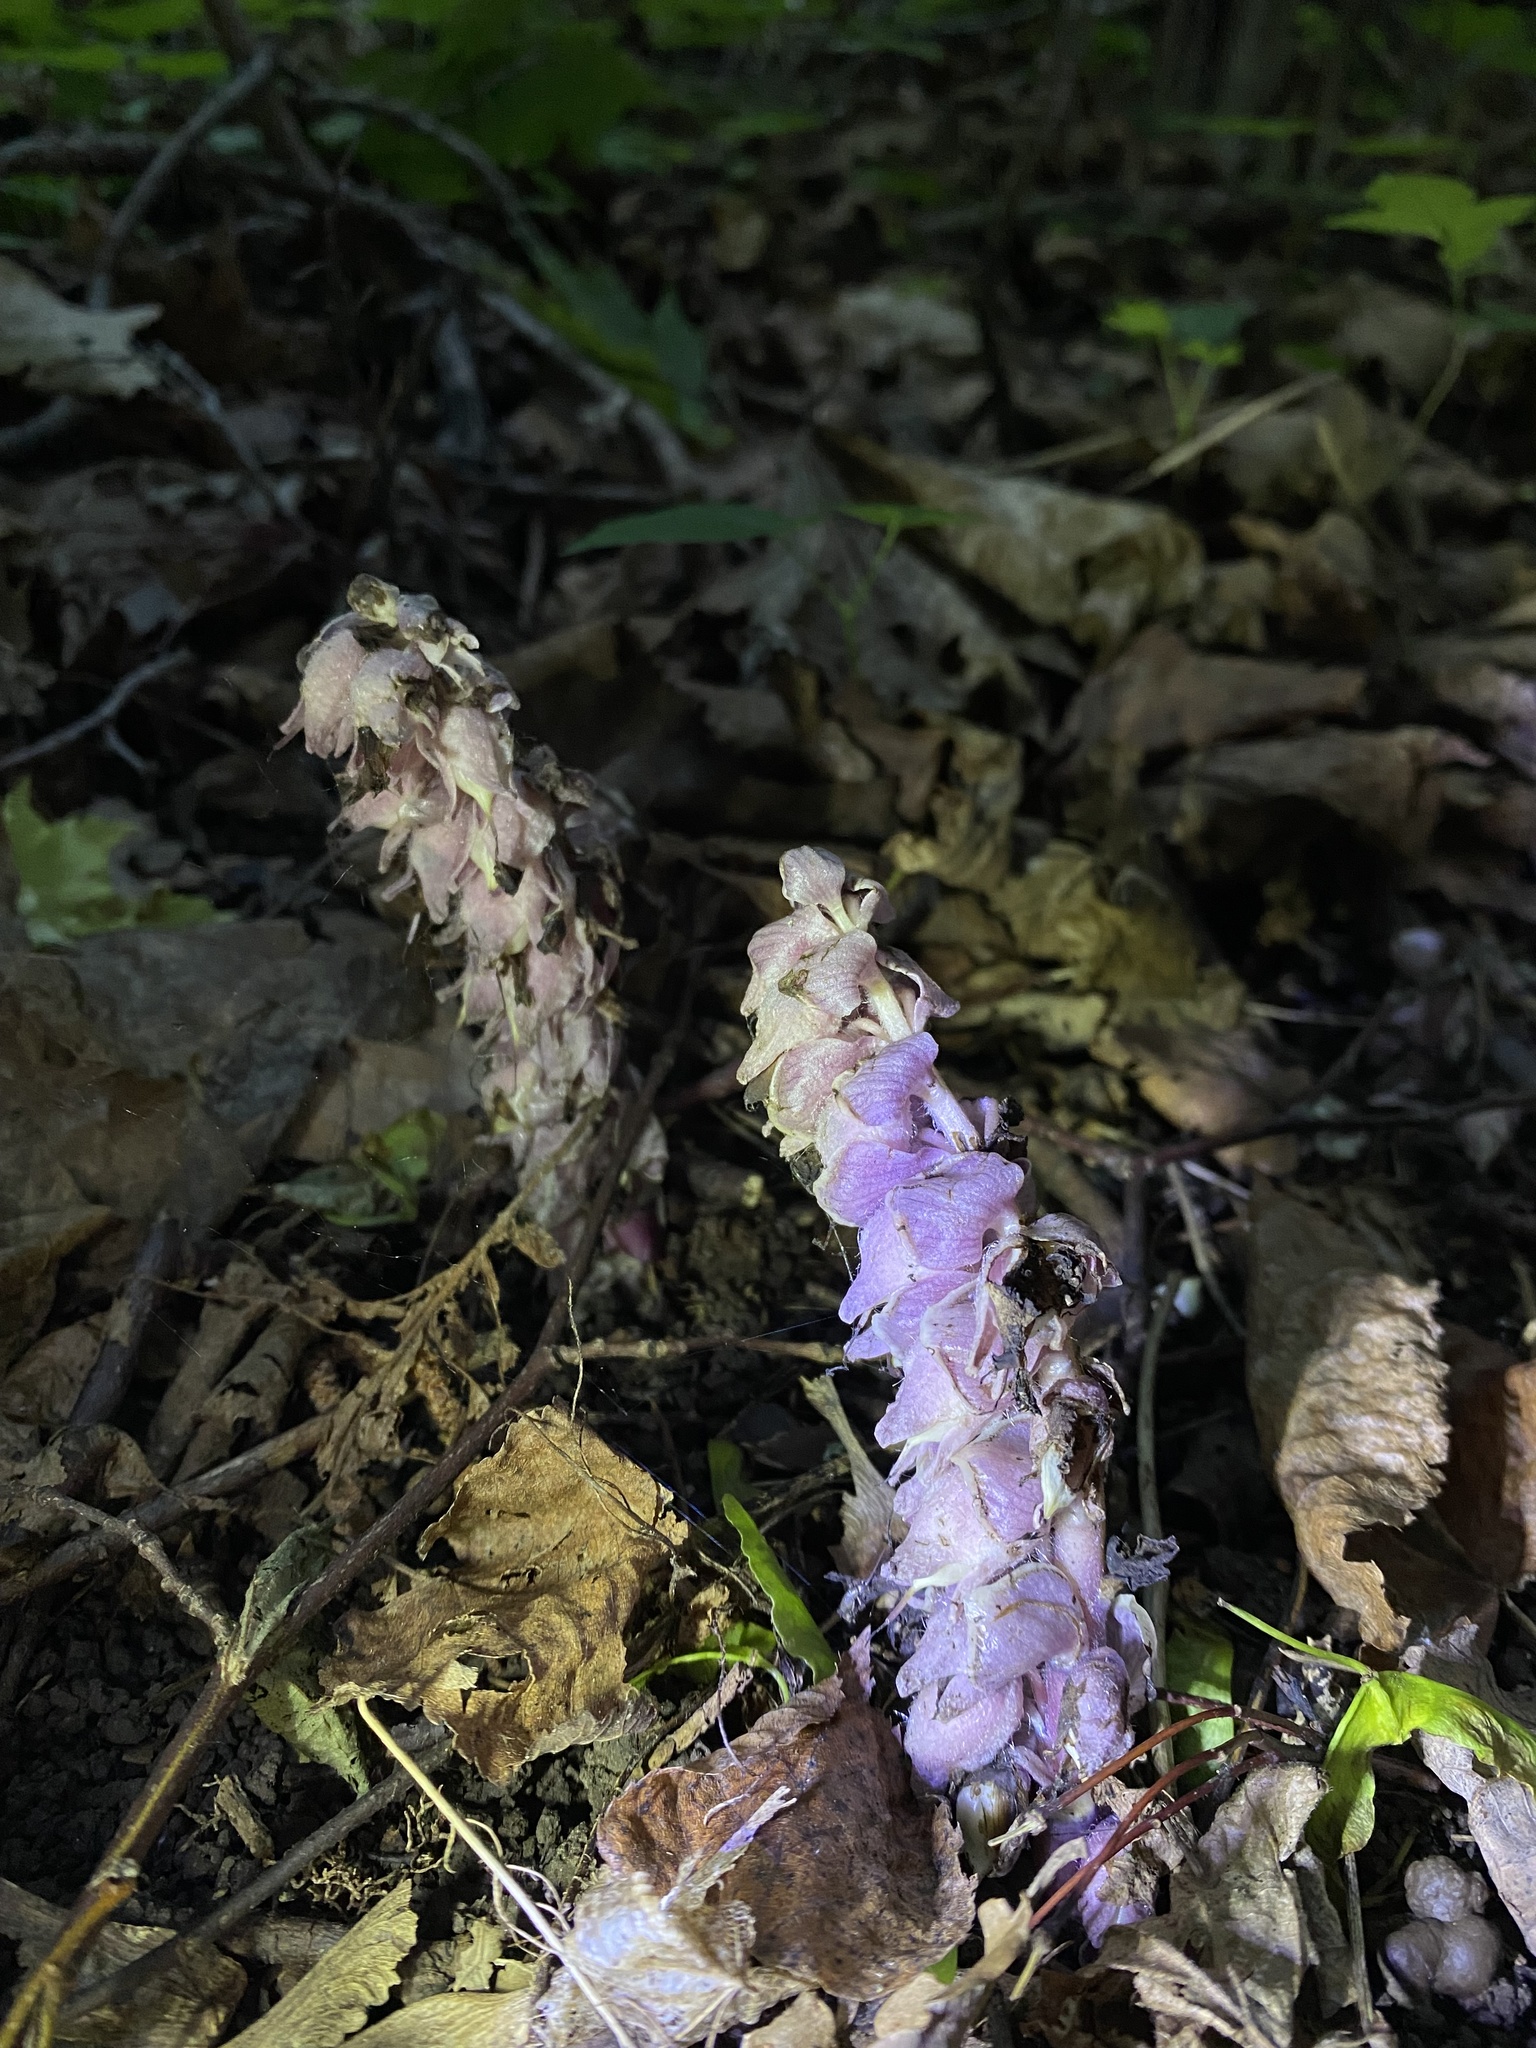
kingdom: Plantae
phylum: Tracheophyta
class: Magnoliopsida
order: Lamiales
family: Orobanchaceae
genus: Lathraea
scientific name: Lathraea squamaria
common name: Toothwort
